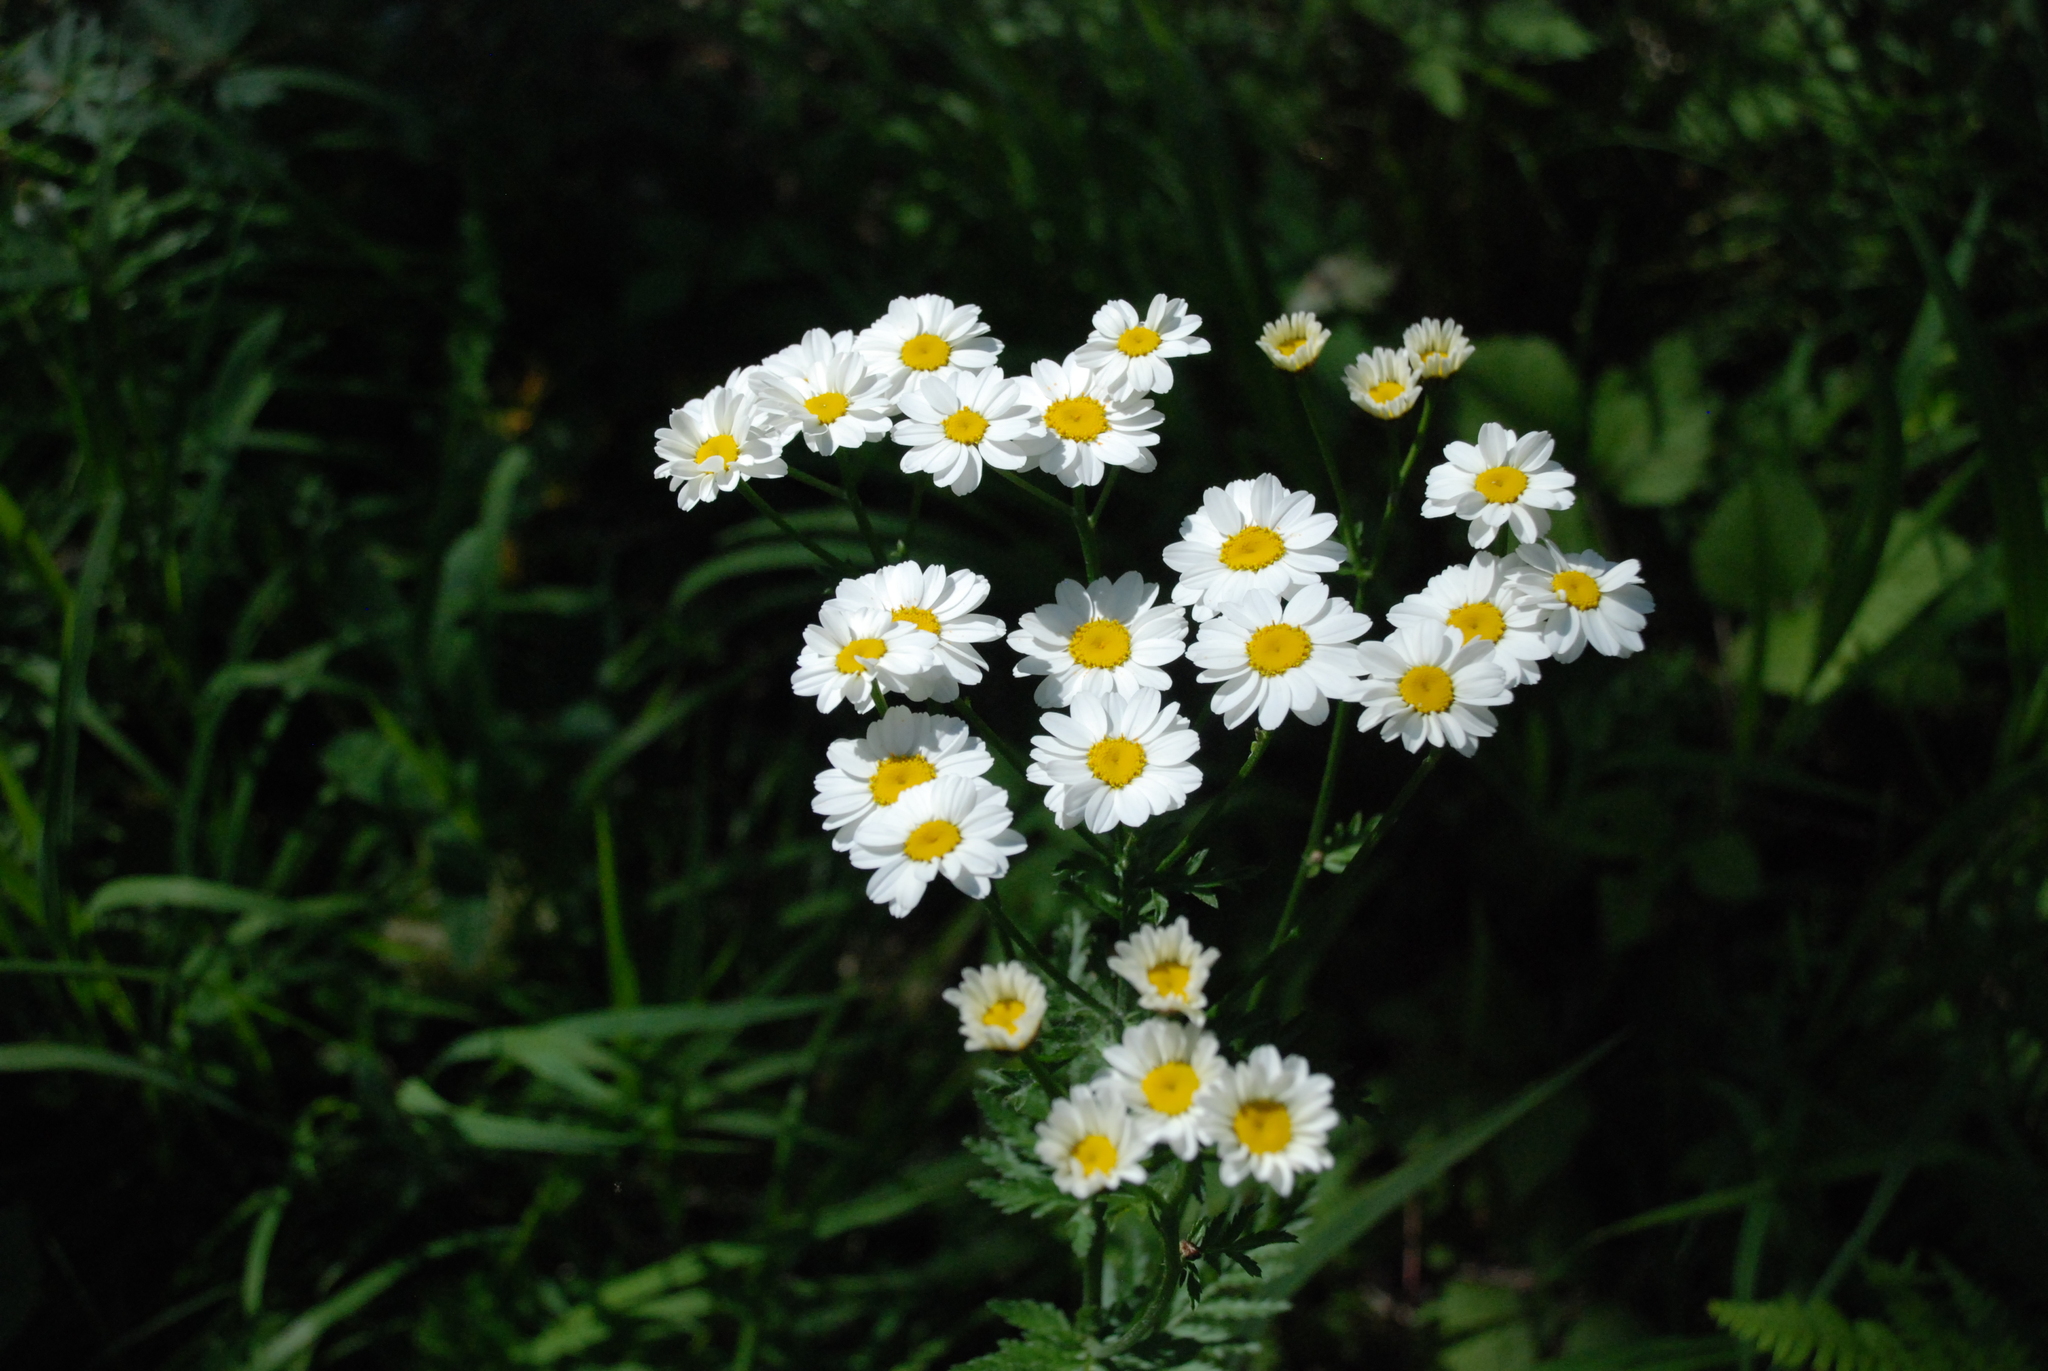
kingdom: Plantae
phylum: Tracheophyta
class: Magnoliopsida
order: Asterales
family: Asteraceae
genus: Tanacetum
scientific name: Tanacetum corymbosum
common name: Scentless feverfew
